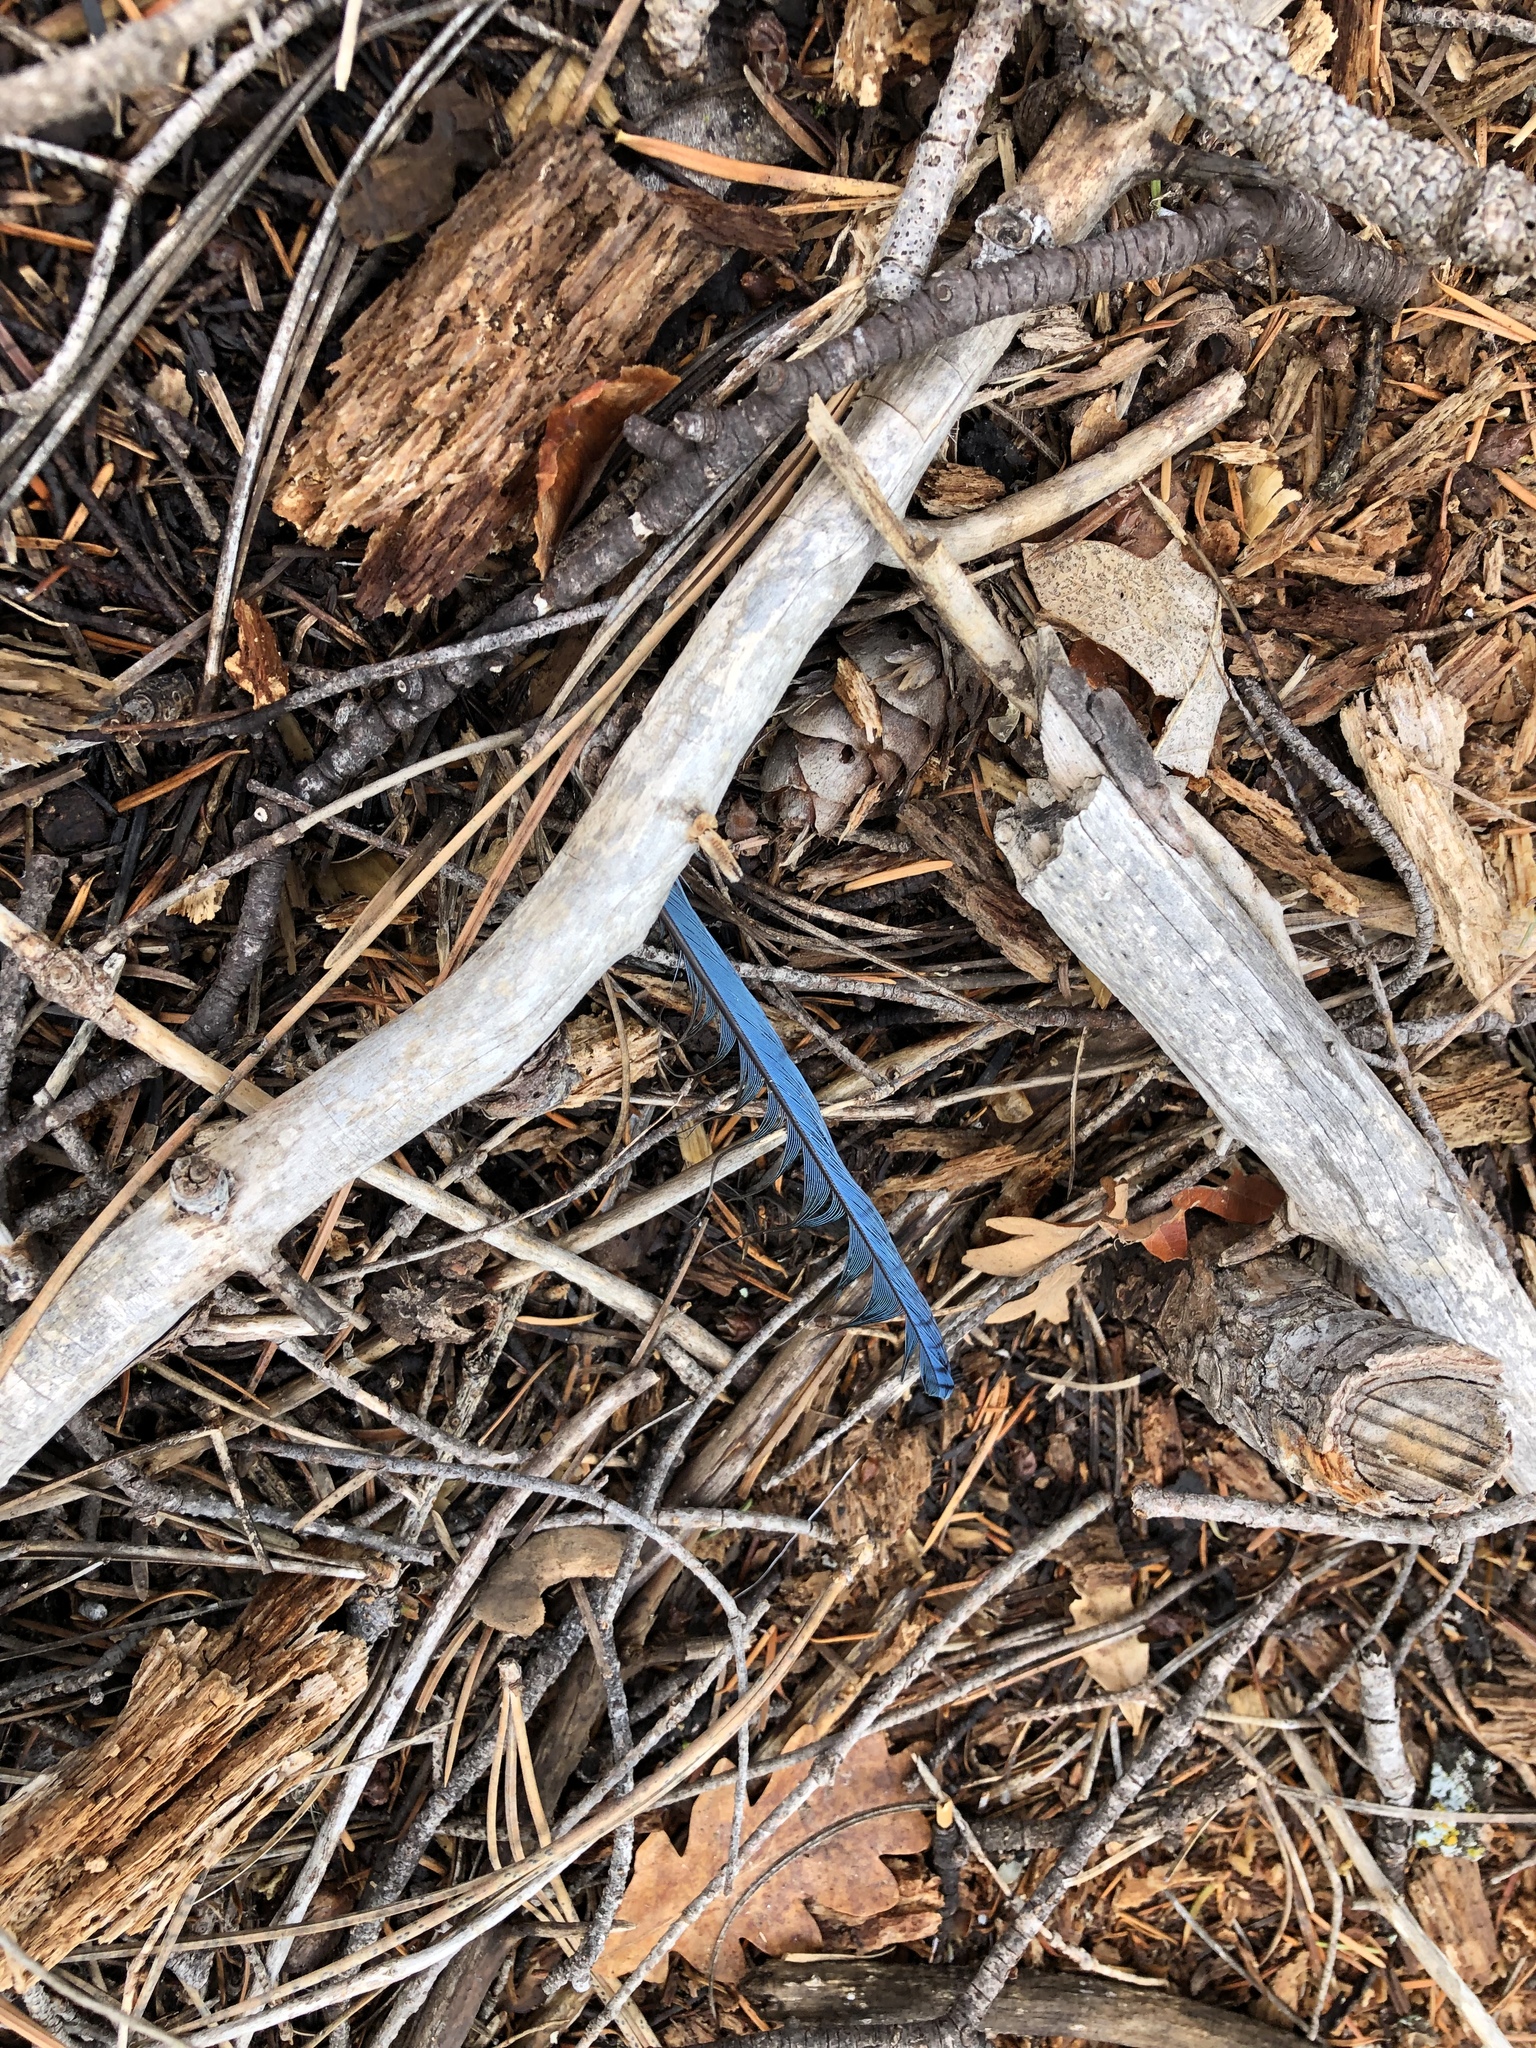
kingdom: Animalia
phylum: Chordata
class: Aves
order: Passeriformes
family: Corvidae
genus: Cyanocitta
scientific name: Cyanocitta stelleri
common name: Steller's jay
